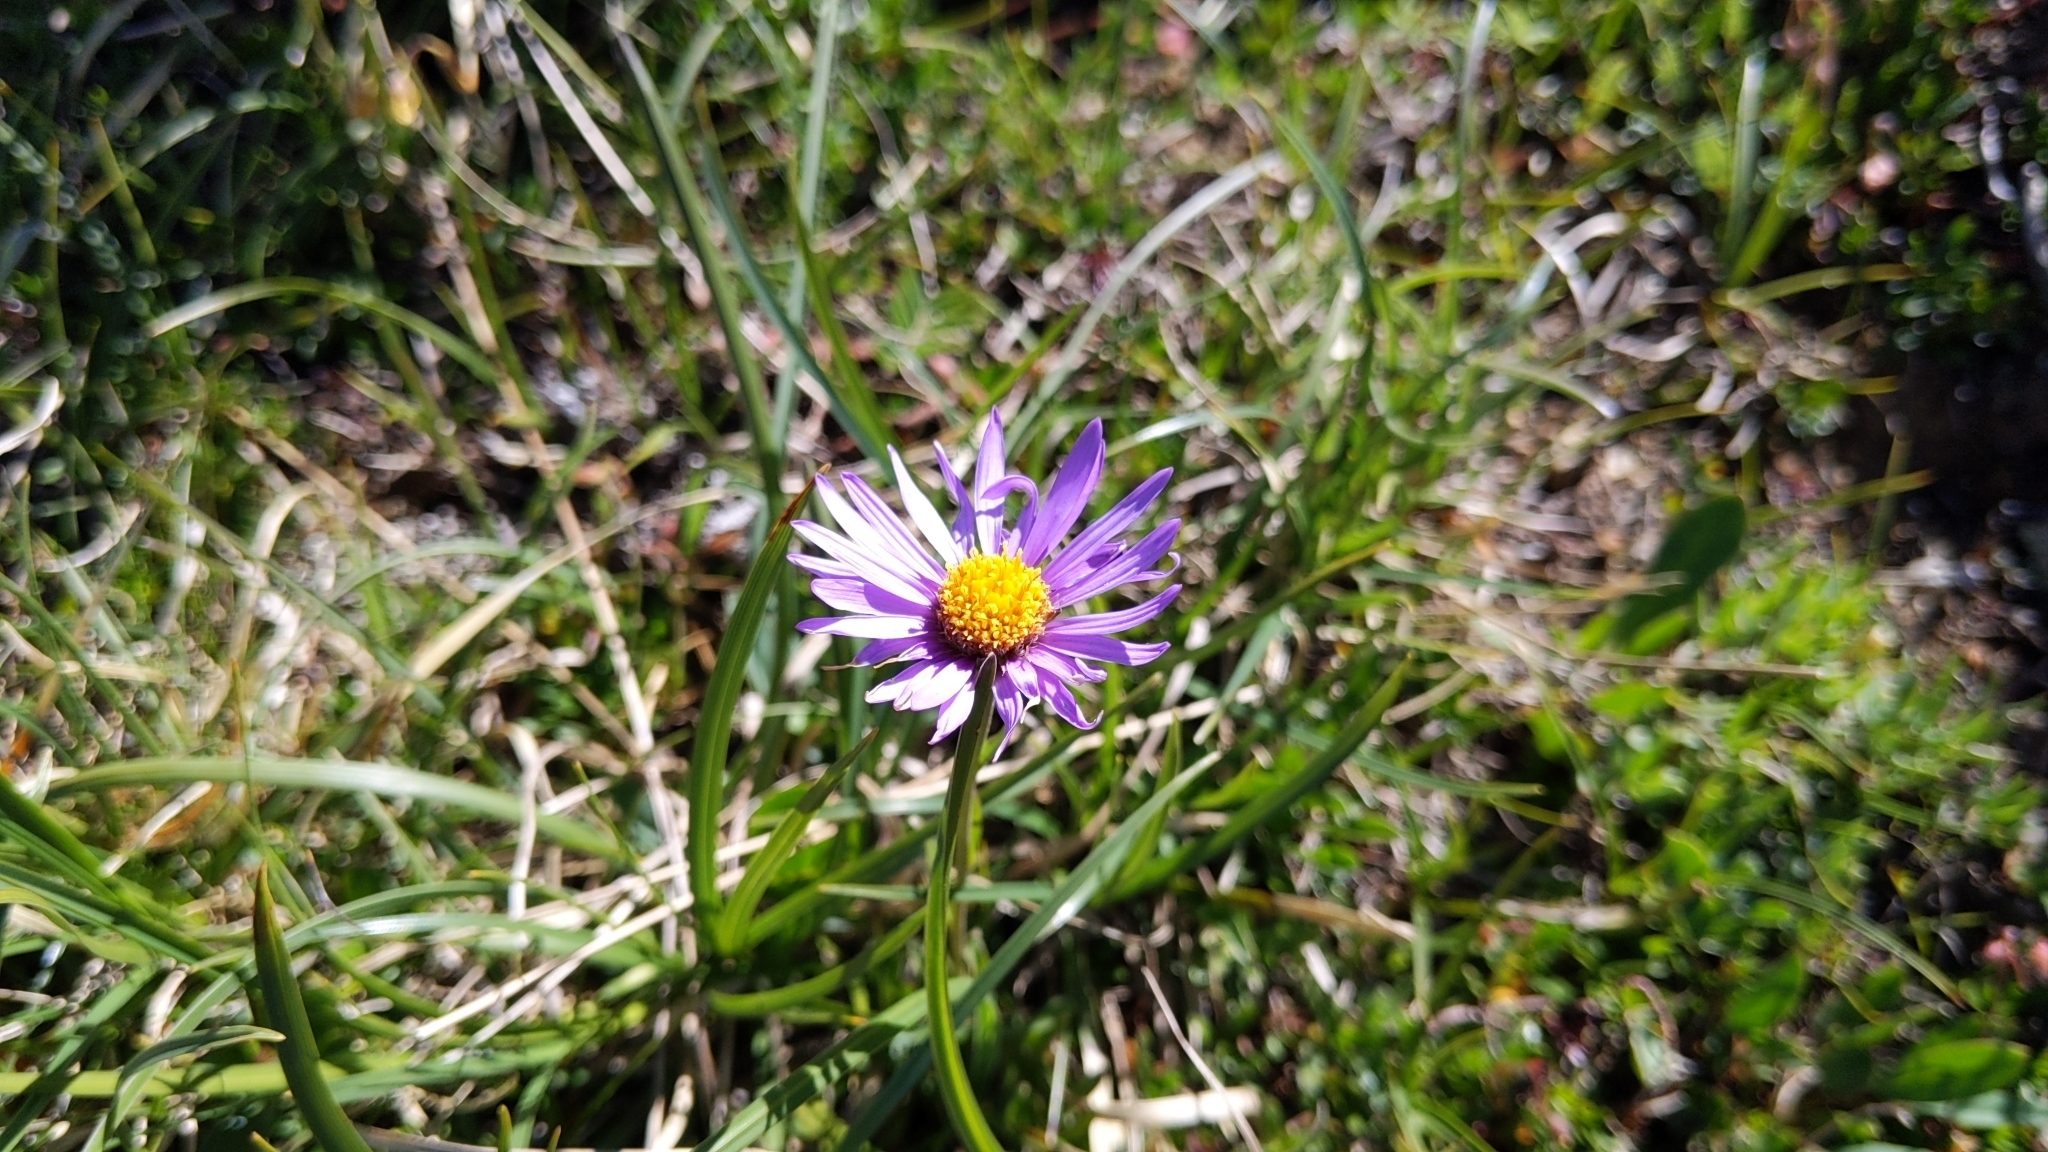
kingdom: Plantae
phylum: Tracheophyta
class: Magnoliopsida
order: Asterales
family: Asteraceae
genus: Aster
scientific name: Aster alpinus
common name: Alpine aster
